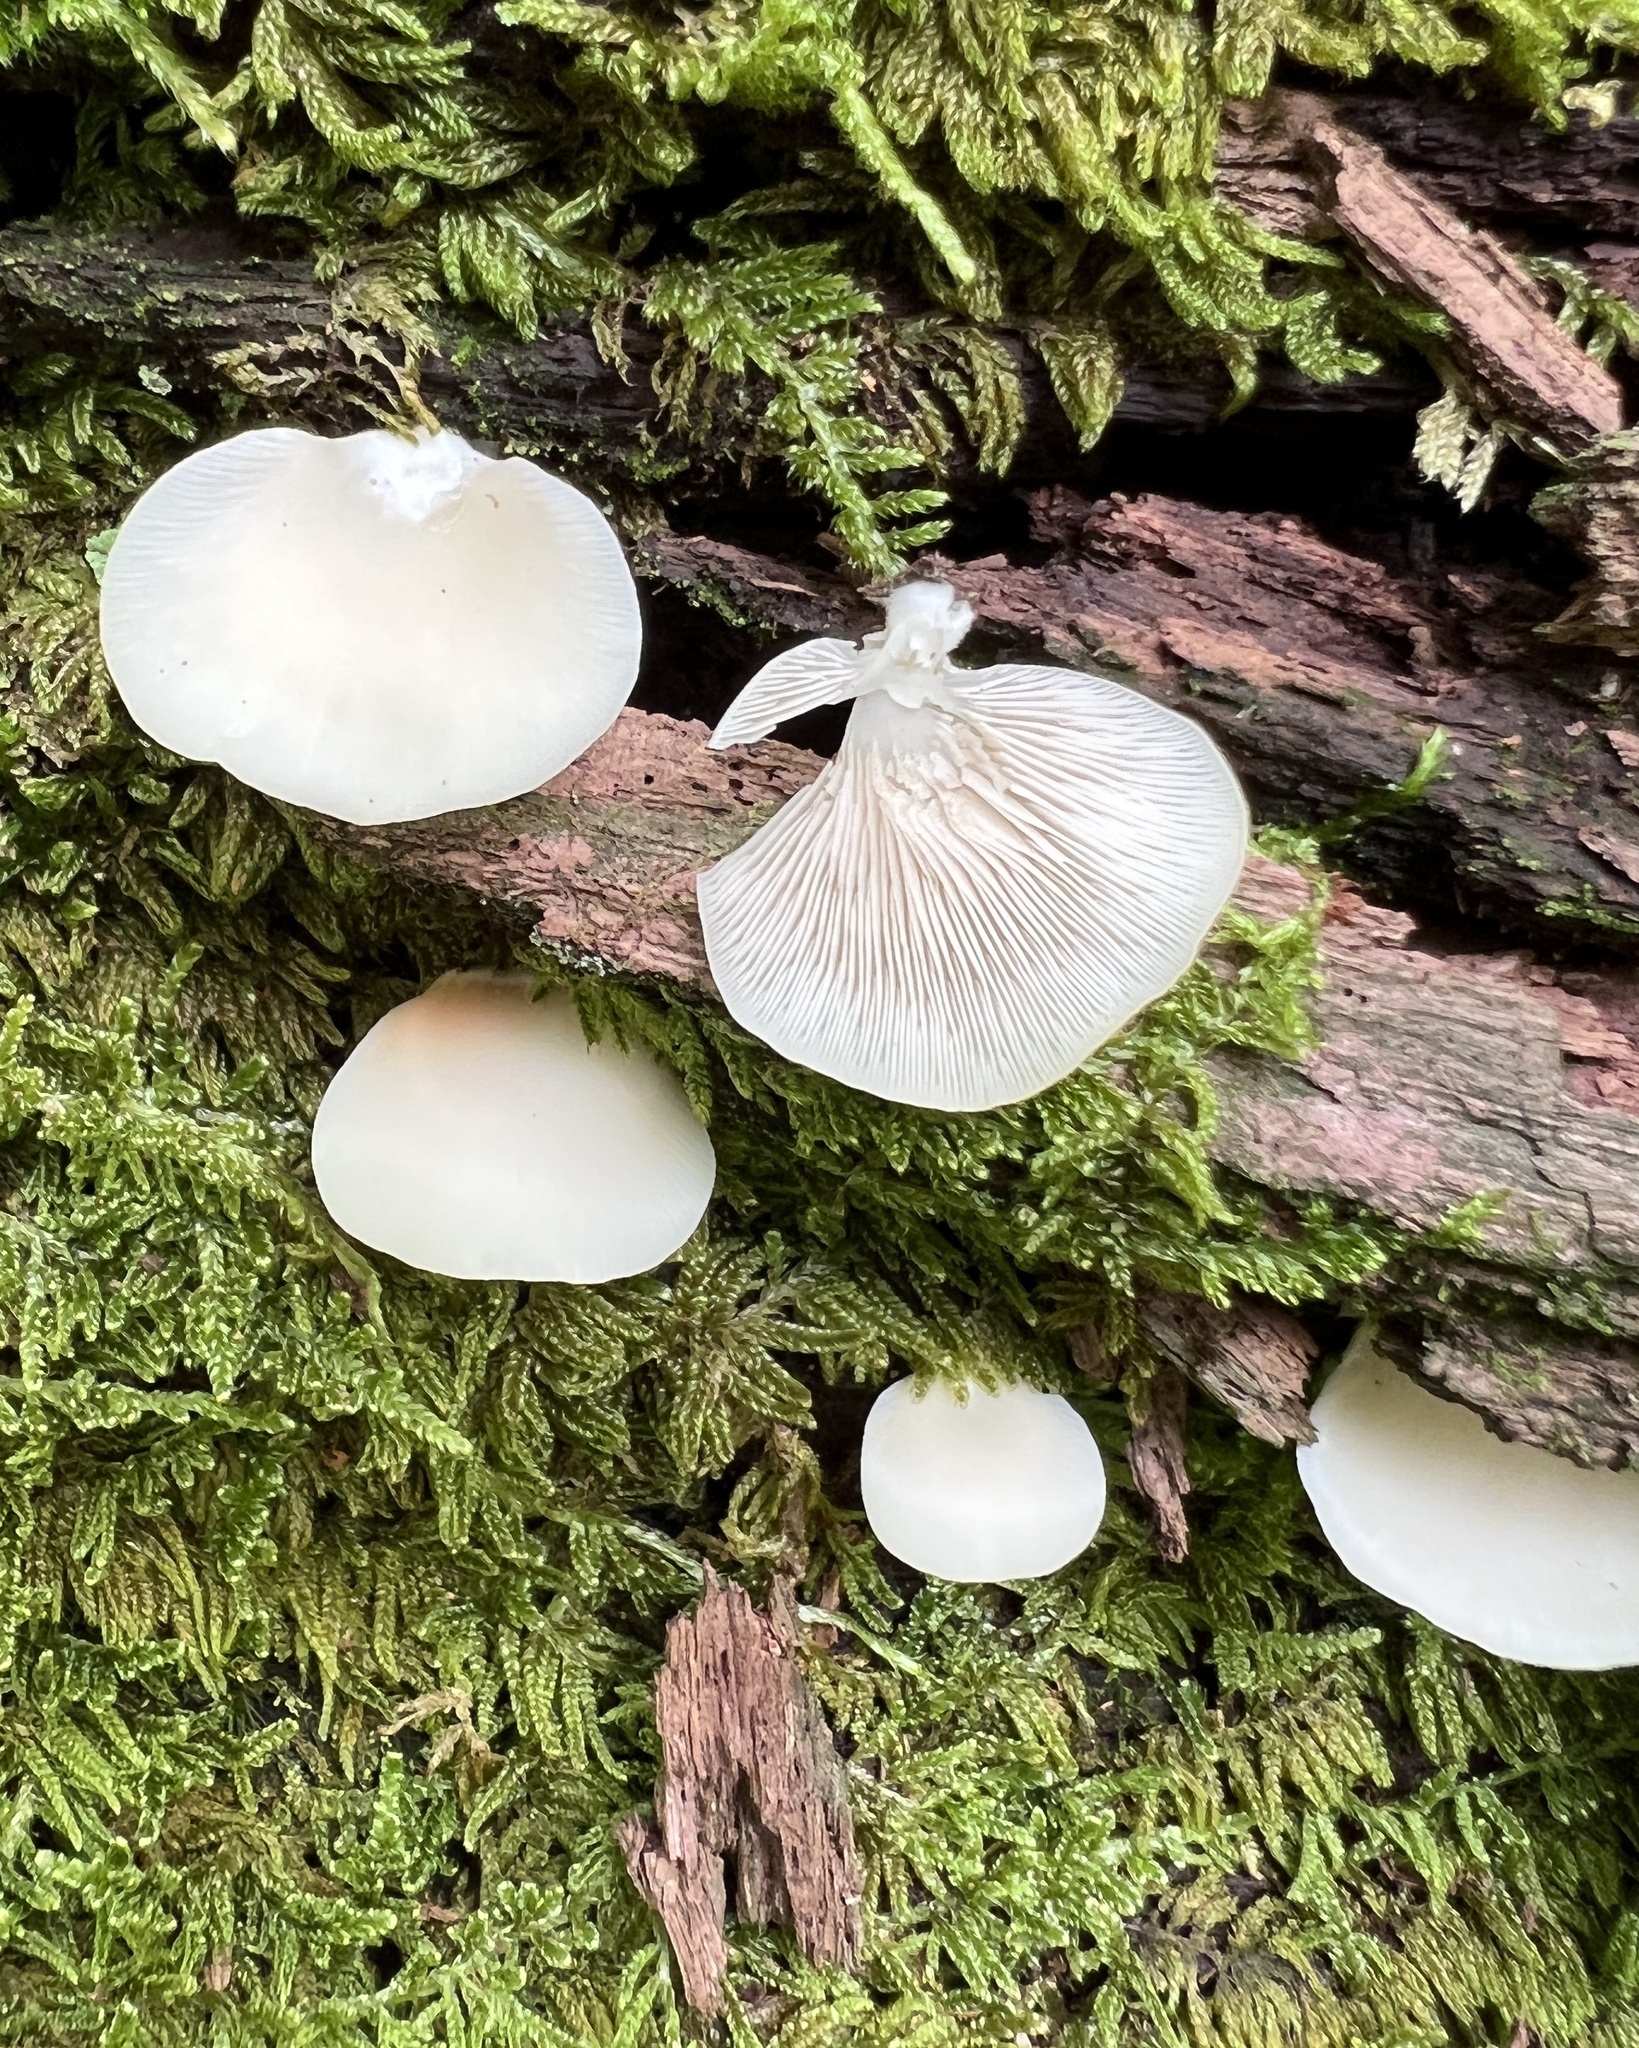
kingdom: Fungi
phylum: Basidiomycota
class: Agaricomycetes
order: Agaricales
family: Crepidotaceae
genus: Crepidotus
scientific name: Crepidotus applanatus
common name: Flat crep
